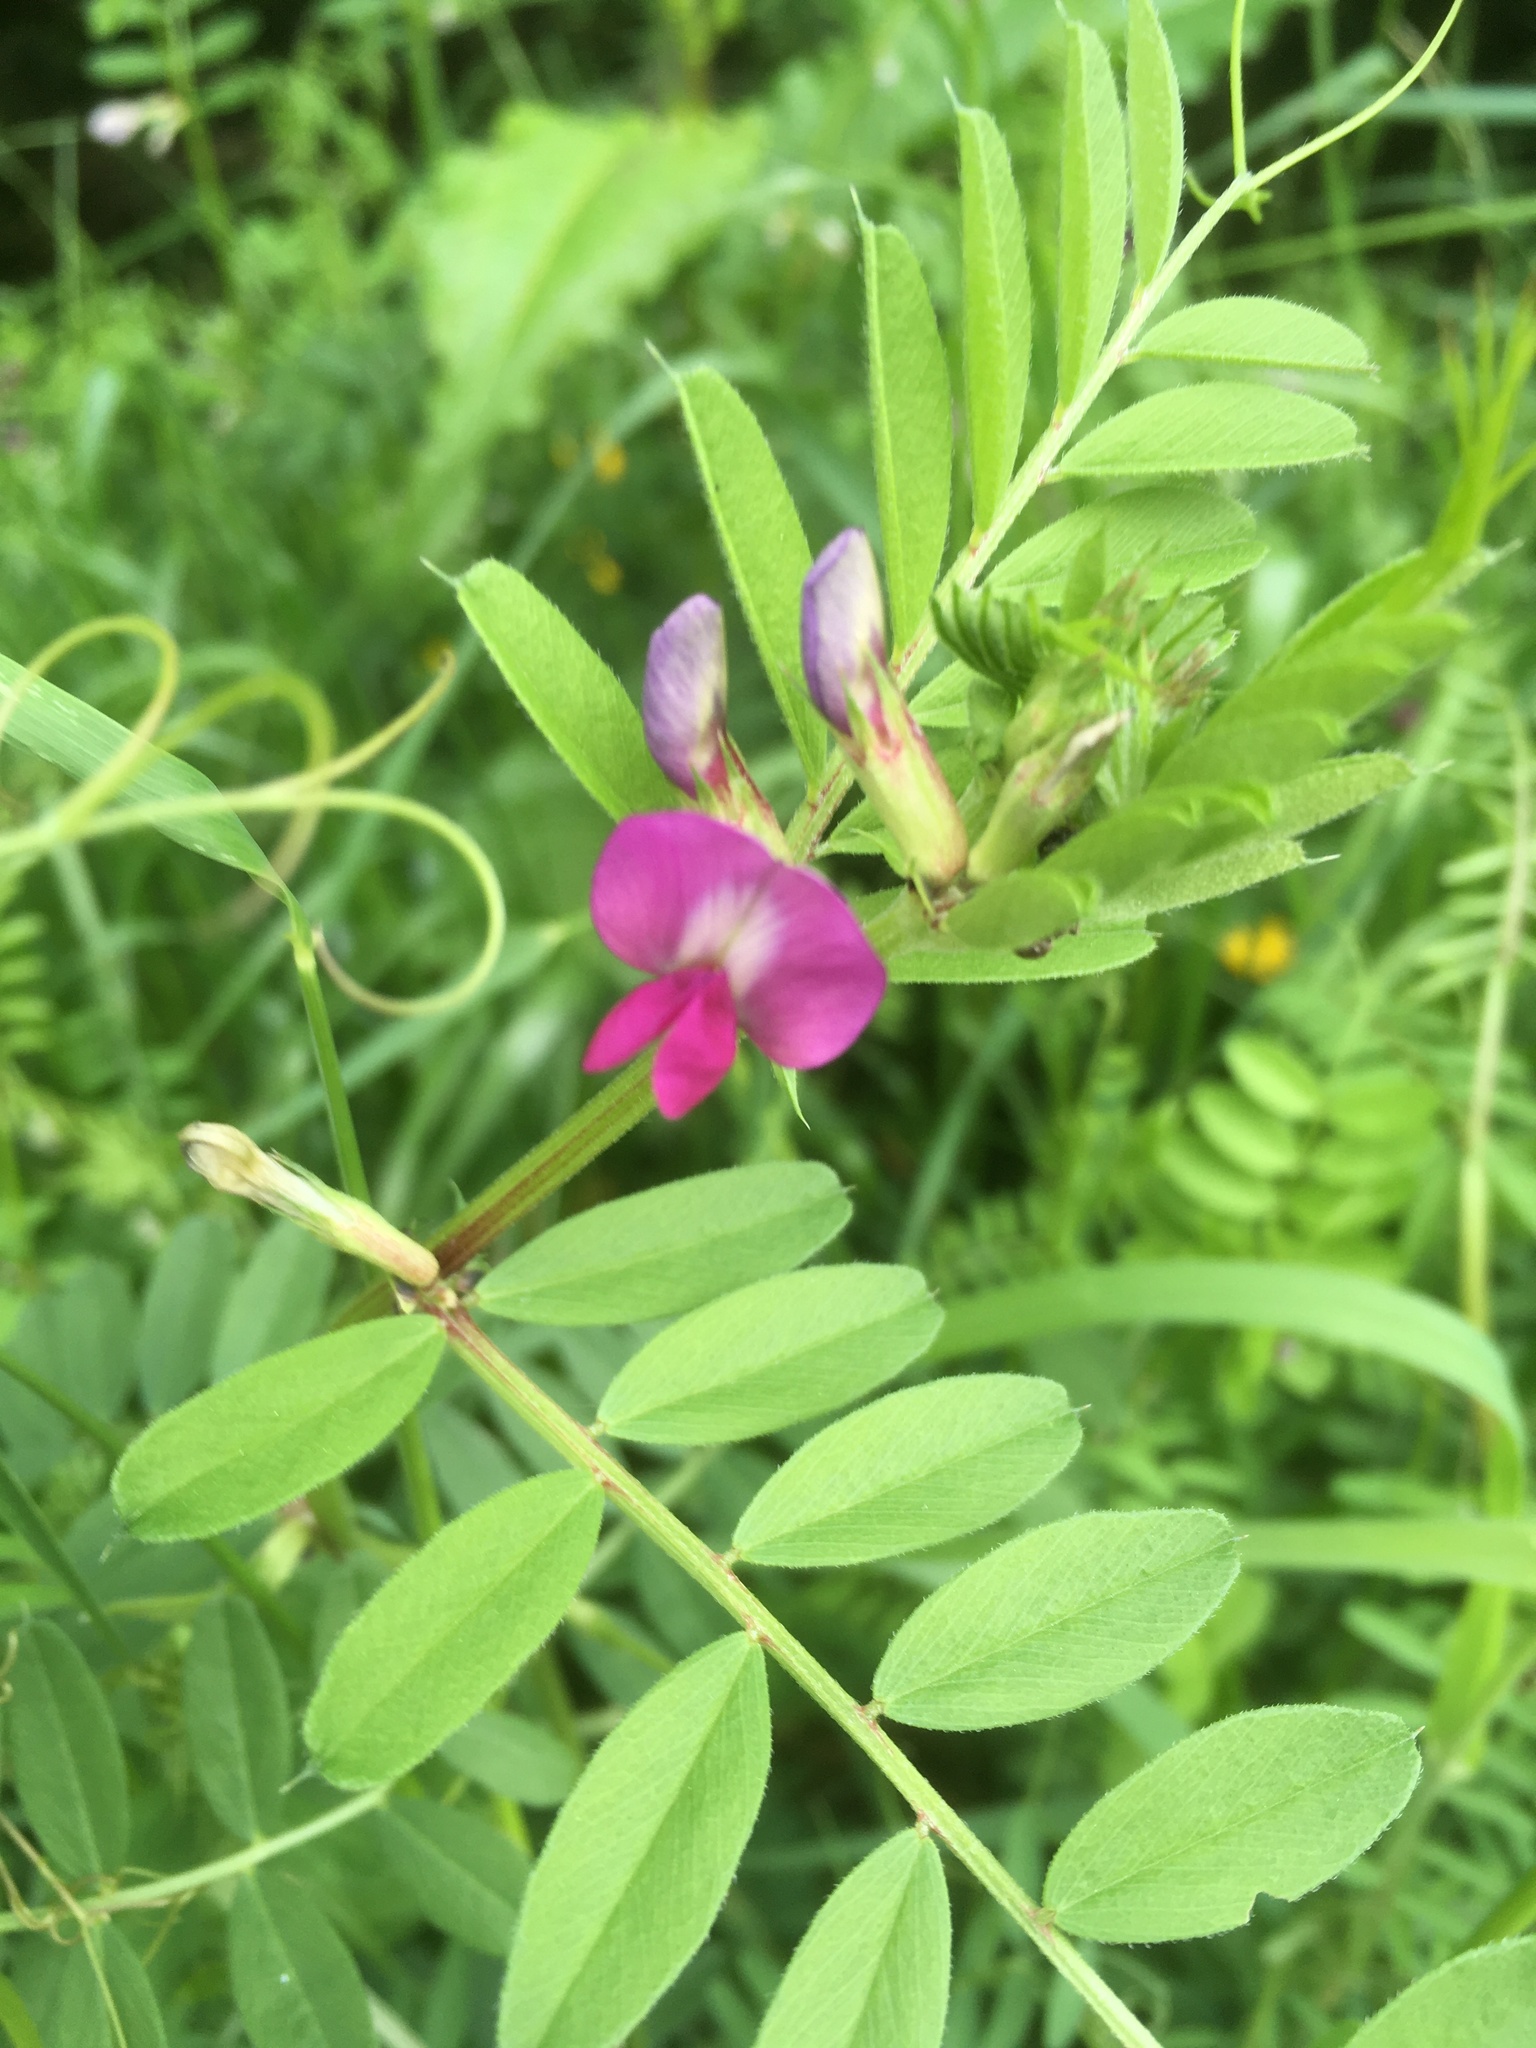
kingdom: Plantae
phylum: Tracheophyta
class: Magnoliopsida
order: Fabales
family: Fabaceae
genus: Vicia
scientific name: Vicia sativa
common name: Garden vetch
